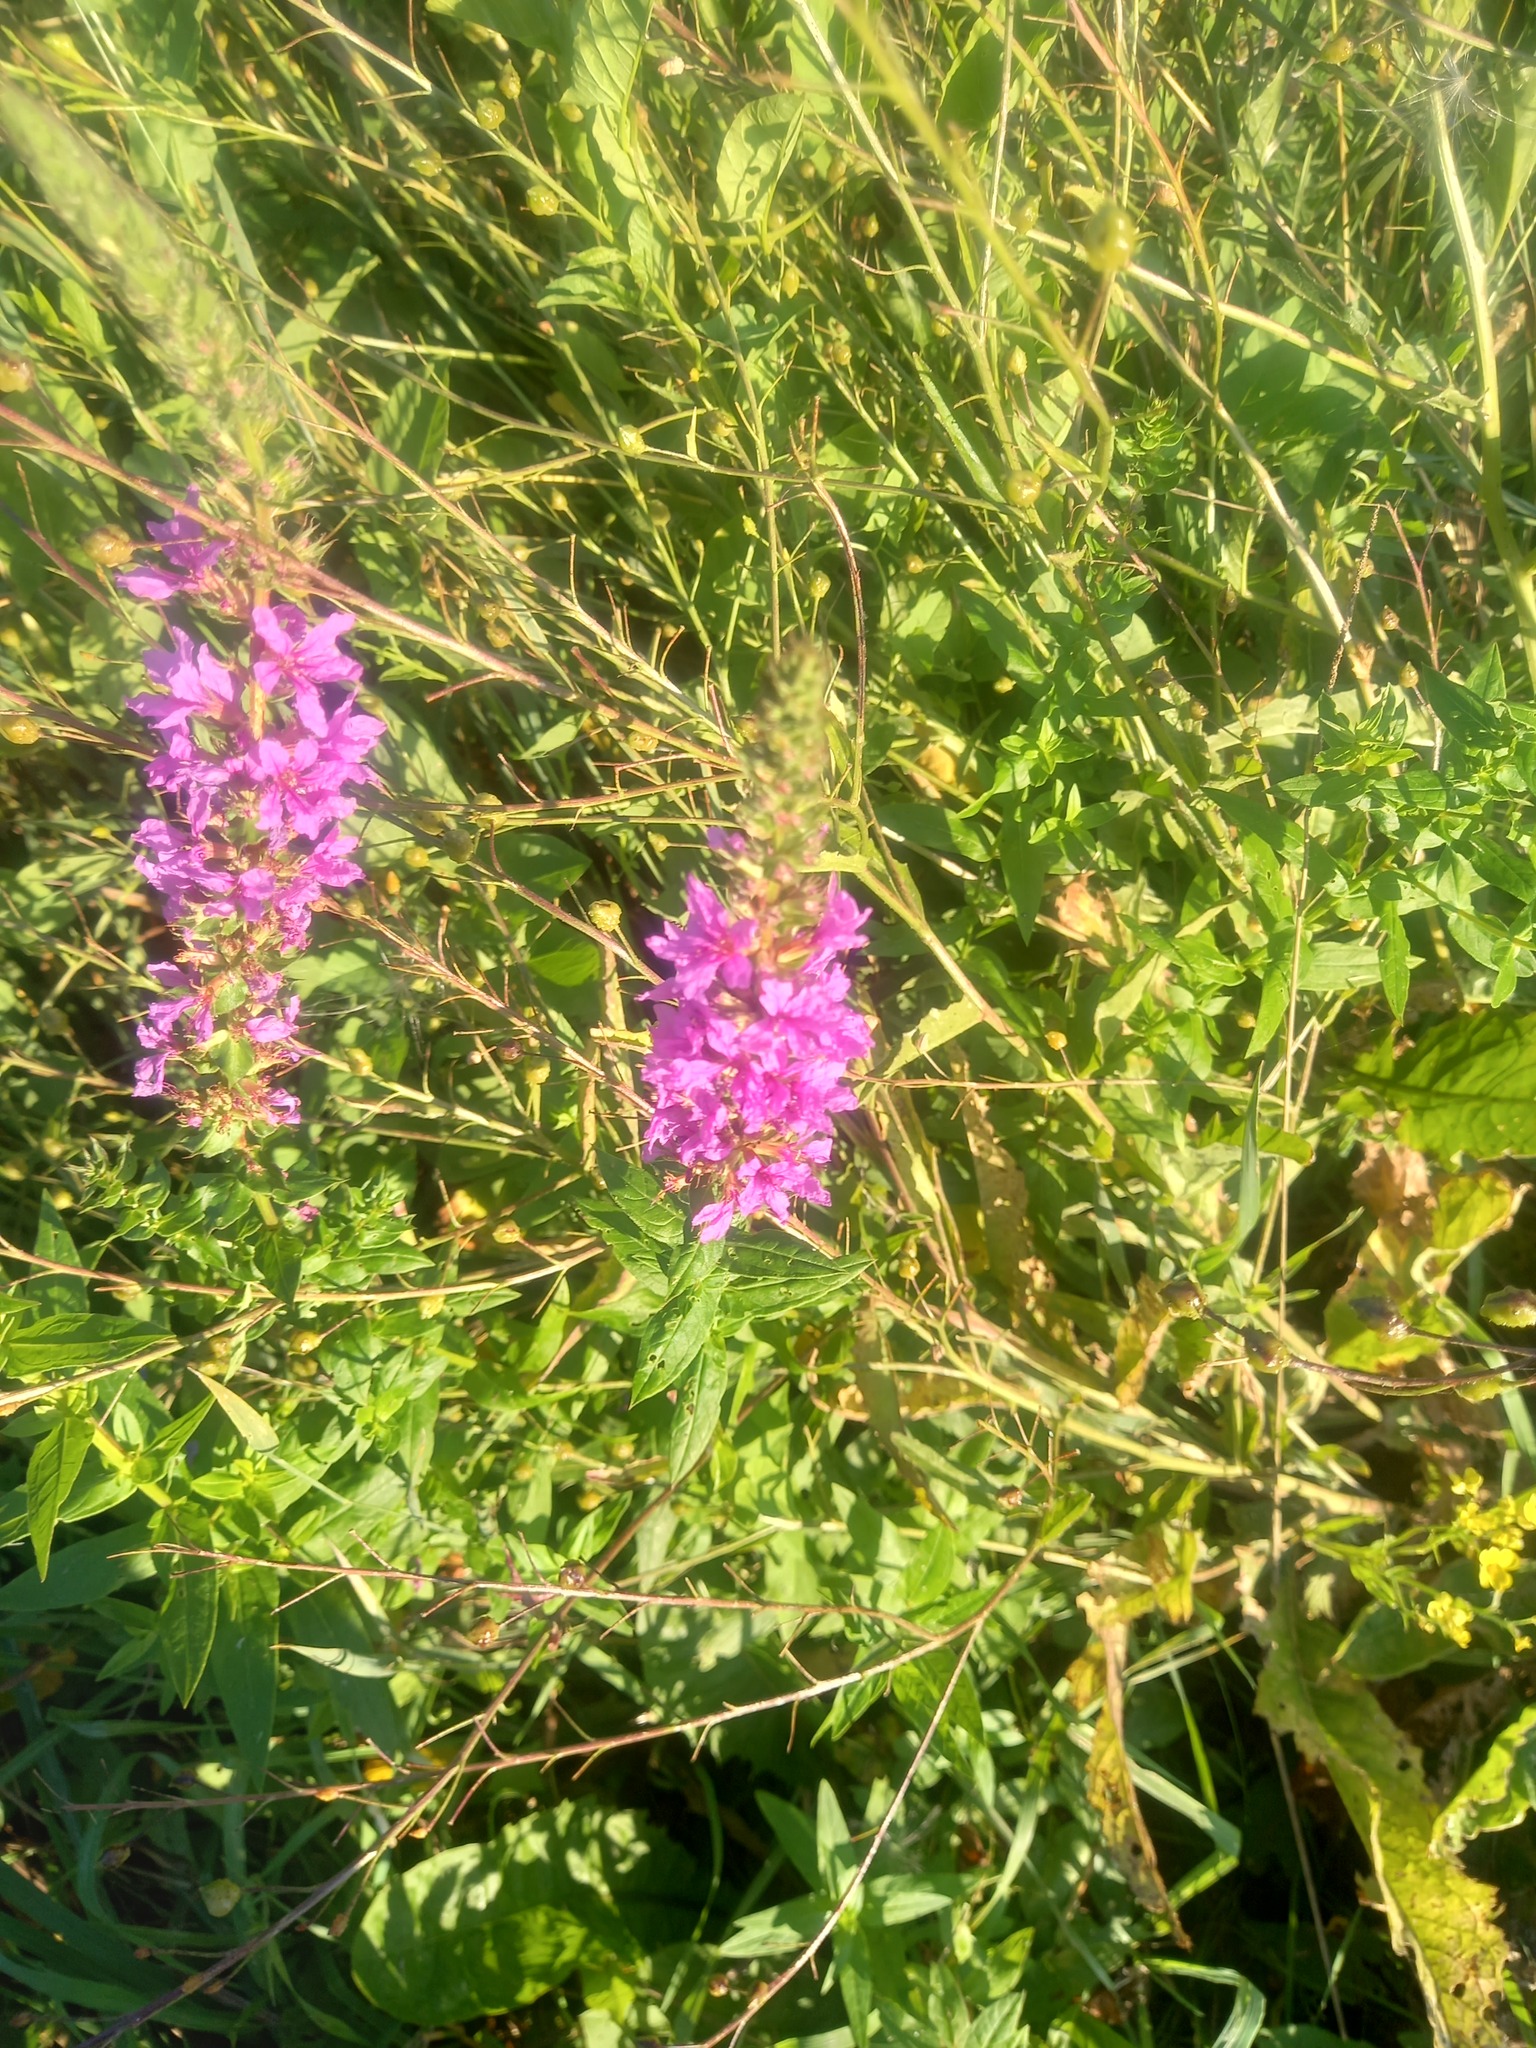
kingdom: Plantae
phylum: Tracheophyta
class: Magnoliopsida
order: Myrtales
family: Lythraceae
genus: Lythrum
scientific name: Lythrum salicaria
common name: Purple loosestrife
